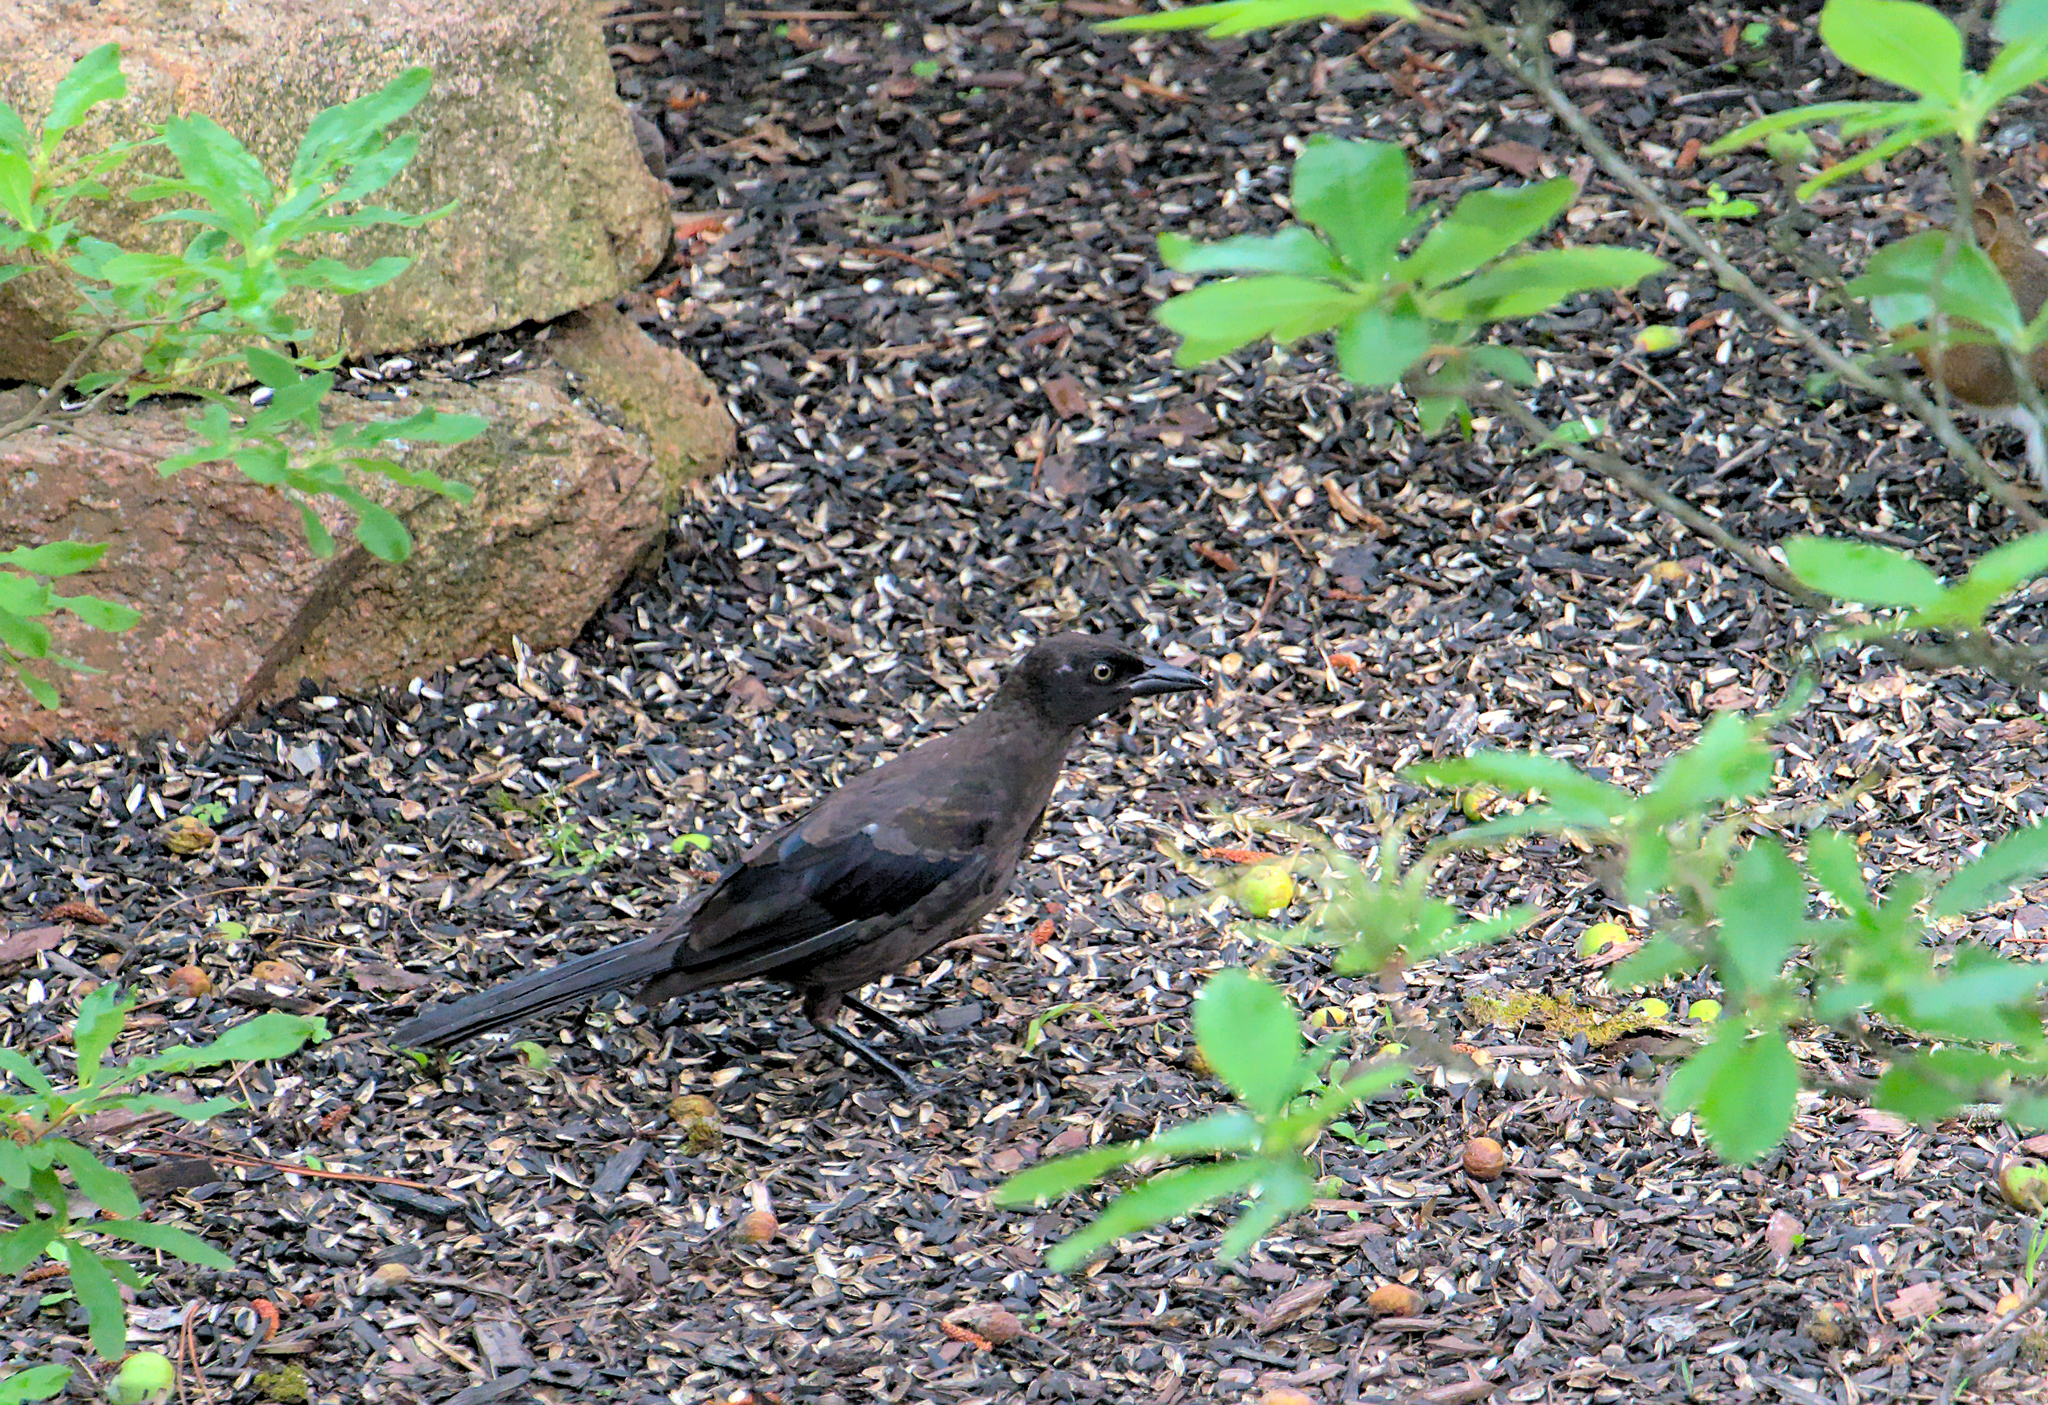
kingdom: Animalia
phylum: Chordata
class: Aves
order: Passeriformes
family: Icteridae
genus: Quiscalus
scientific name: Quiscalus quiscula
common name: Common grackle
